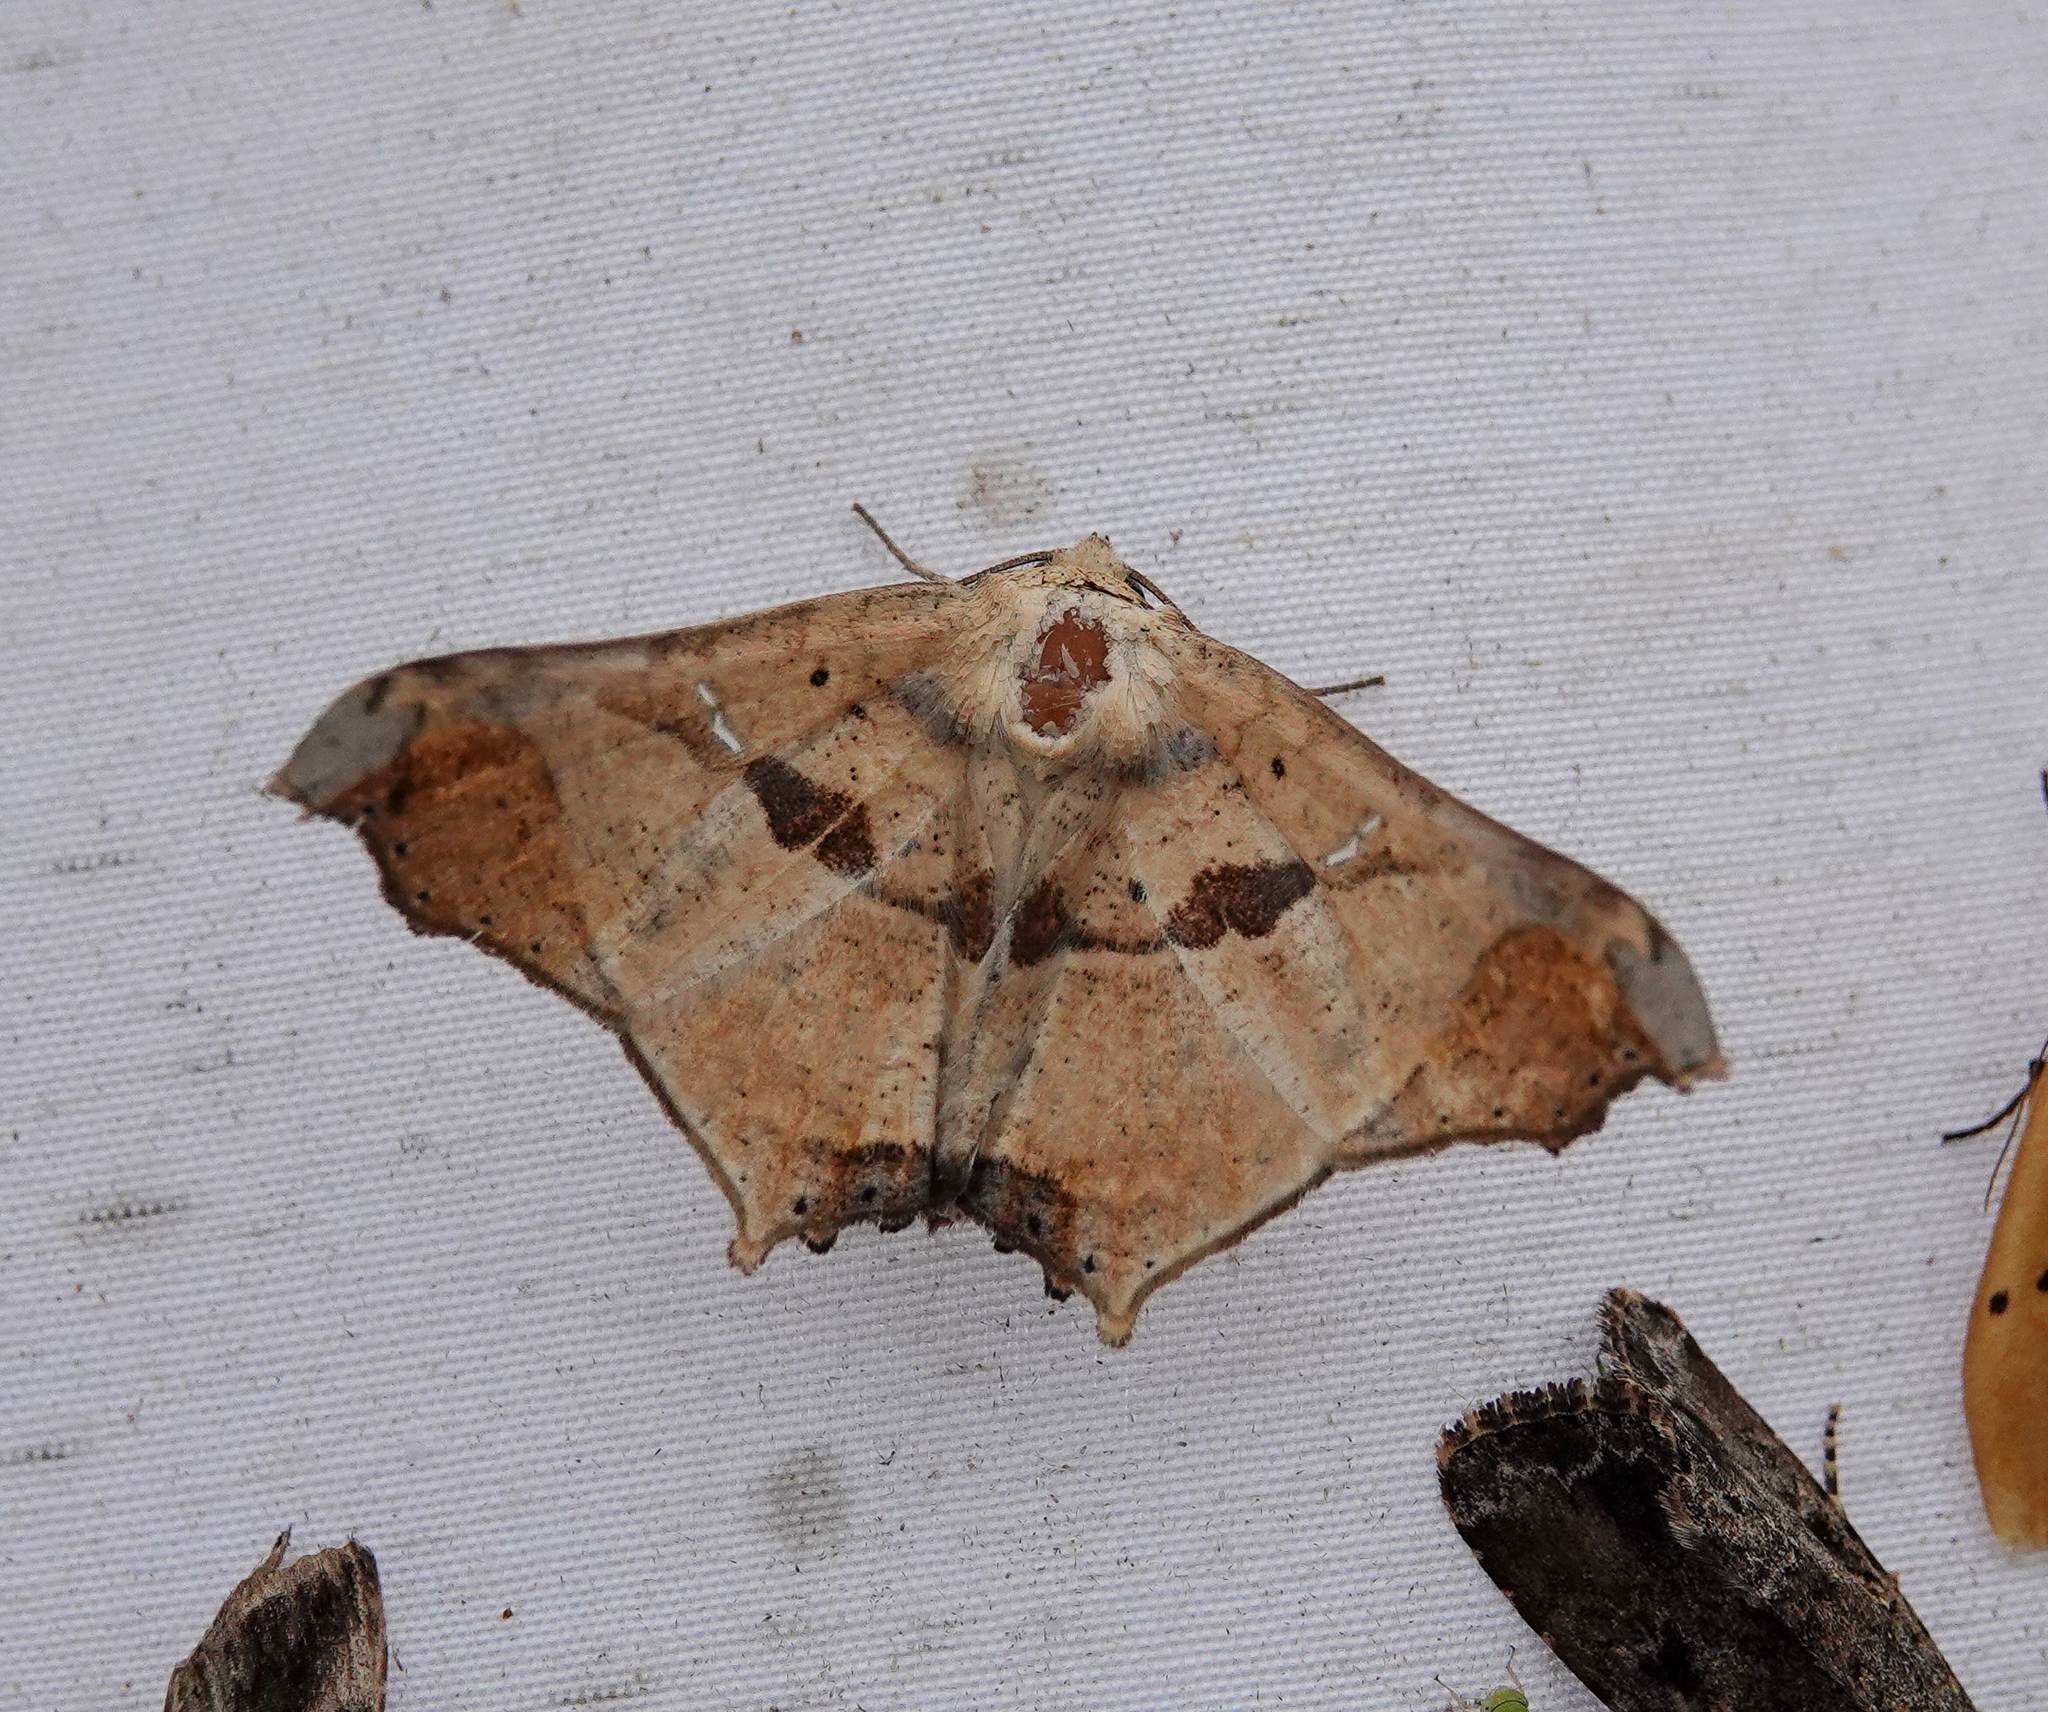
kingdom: Animalia
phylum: Arthropoda
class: Insecta
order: Lepidoptera
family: Erebidae
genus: Semiothisops
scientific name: Semiothisops macariata
